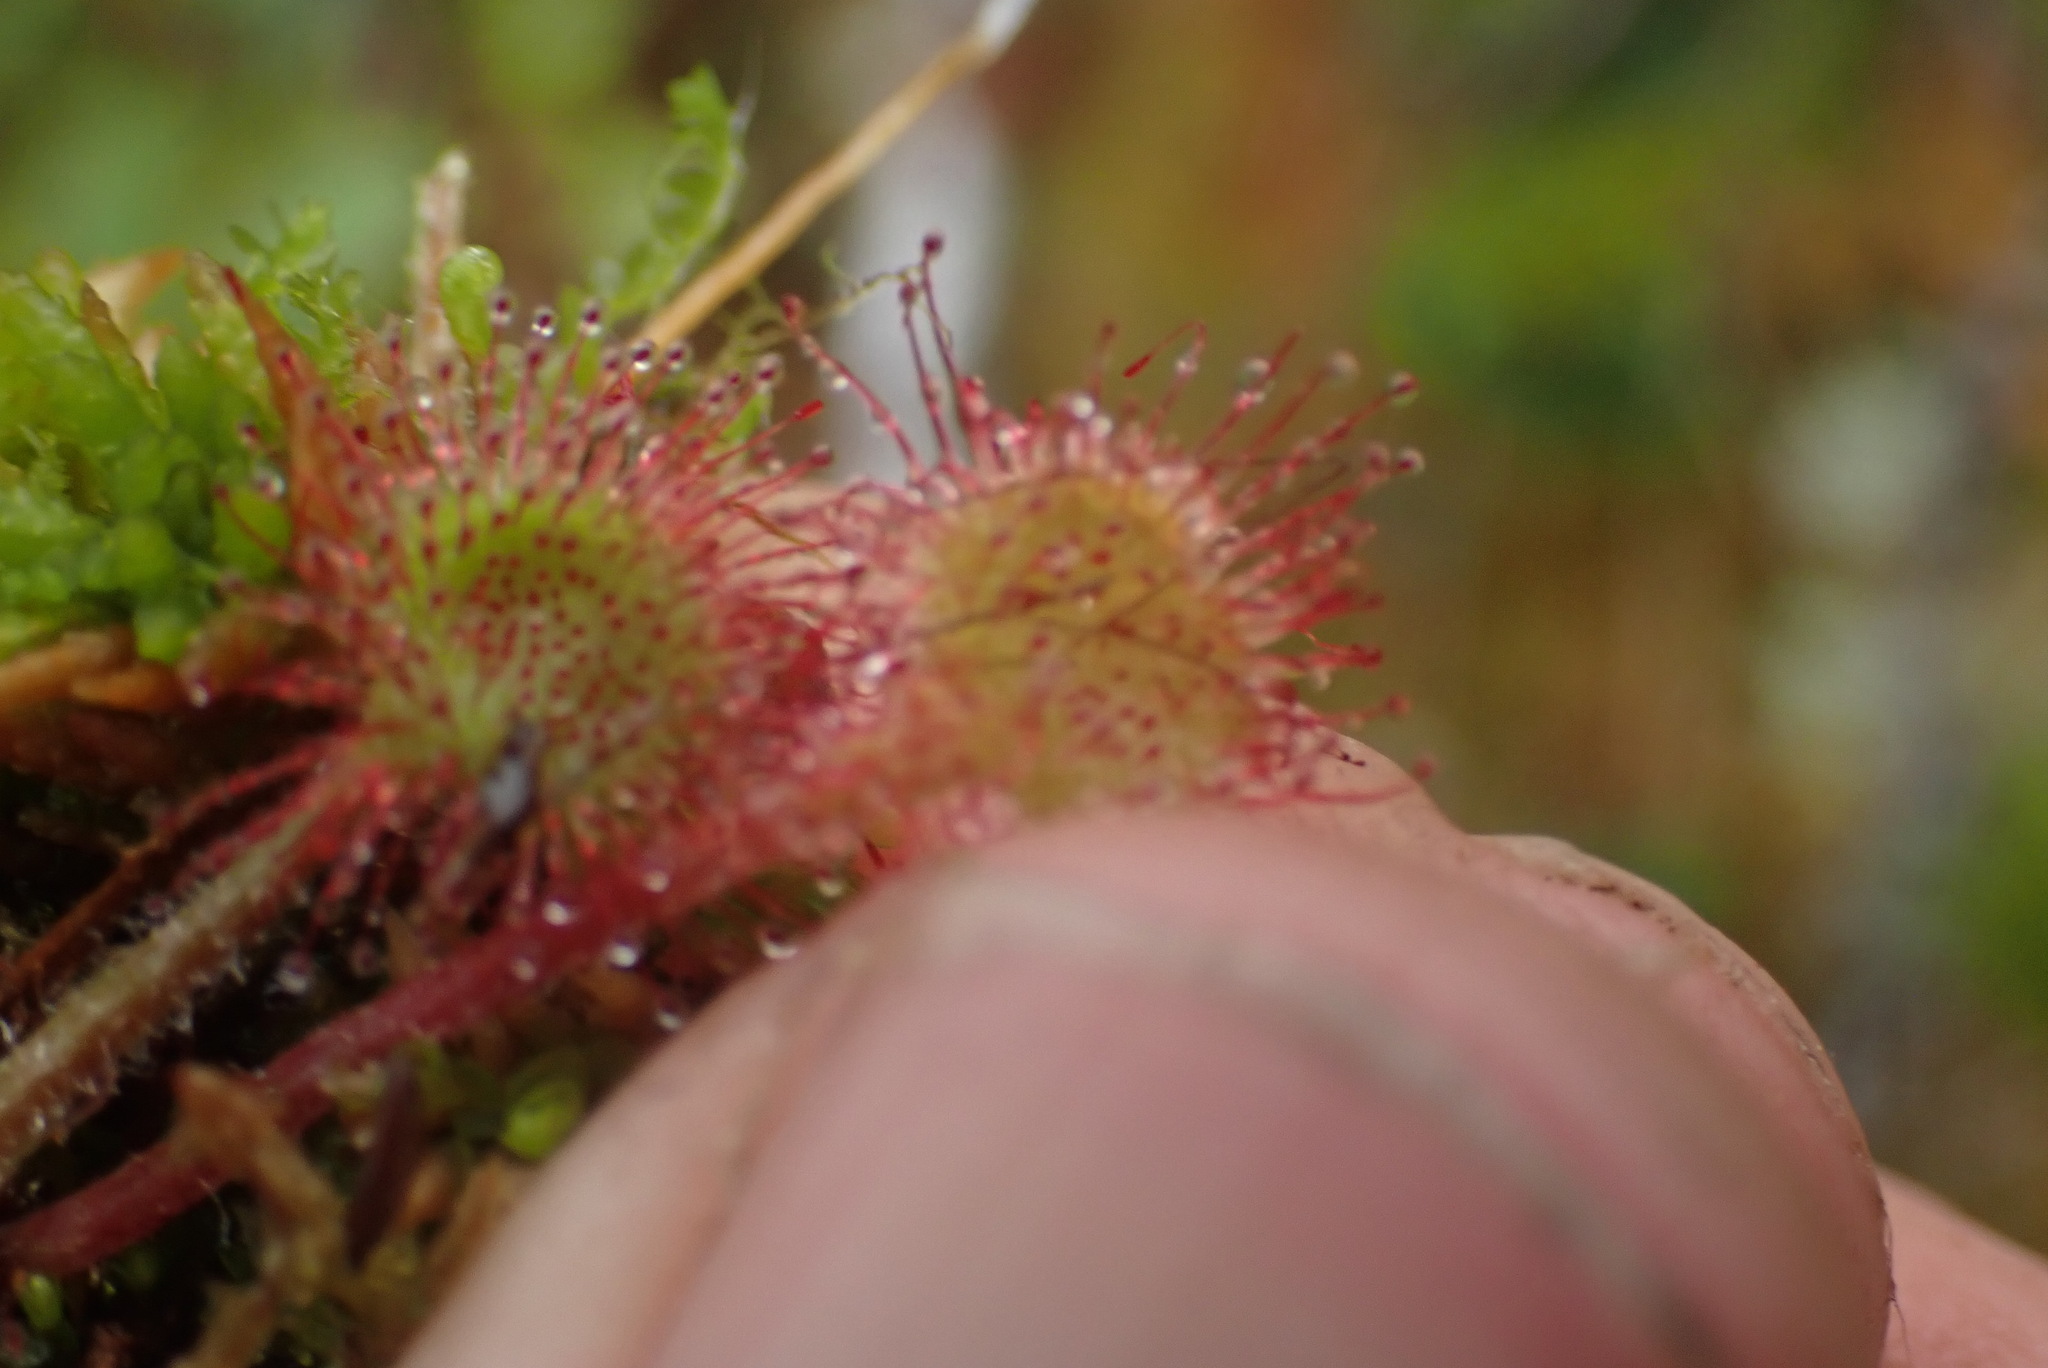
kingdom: Plantae
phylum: Tracheophyta
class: Magnoliopsida
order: Caryophyllales
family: Droseraceae
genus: Drosera
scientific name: Drosera rotundifolia
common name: Round-leaved sundew
